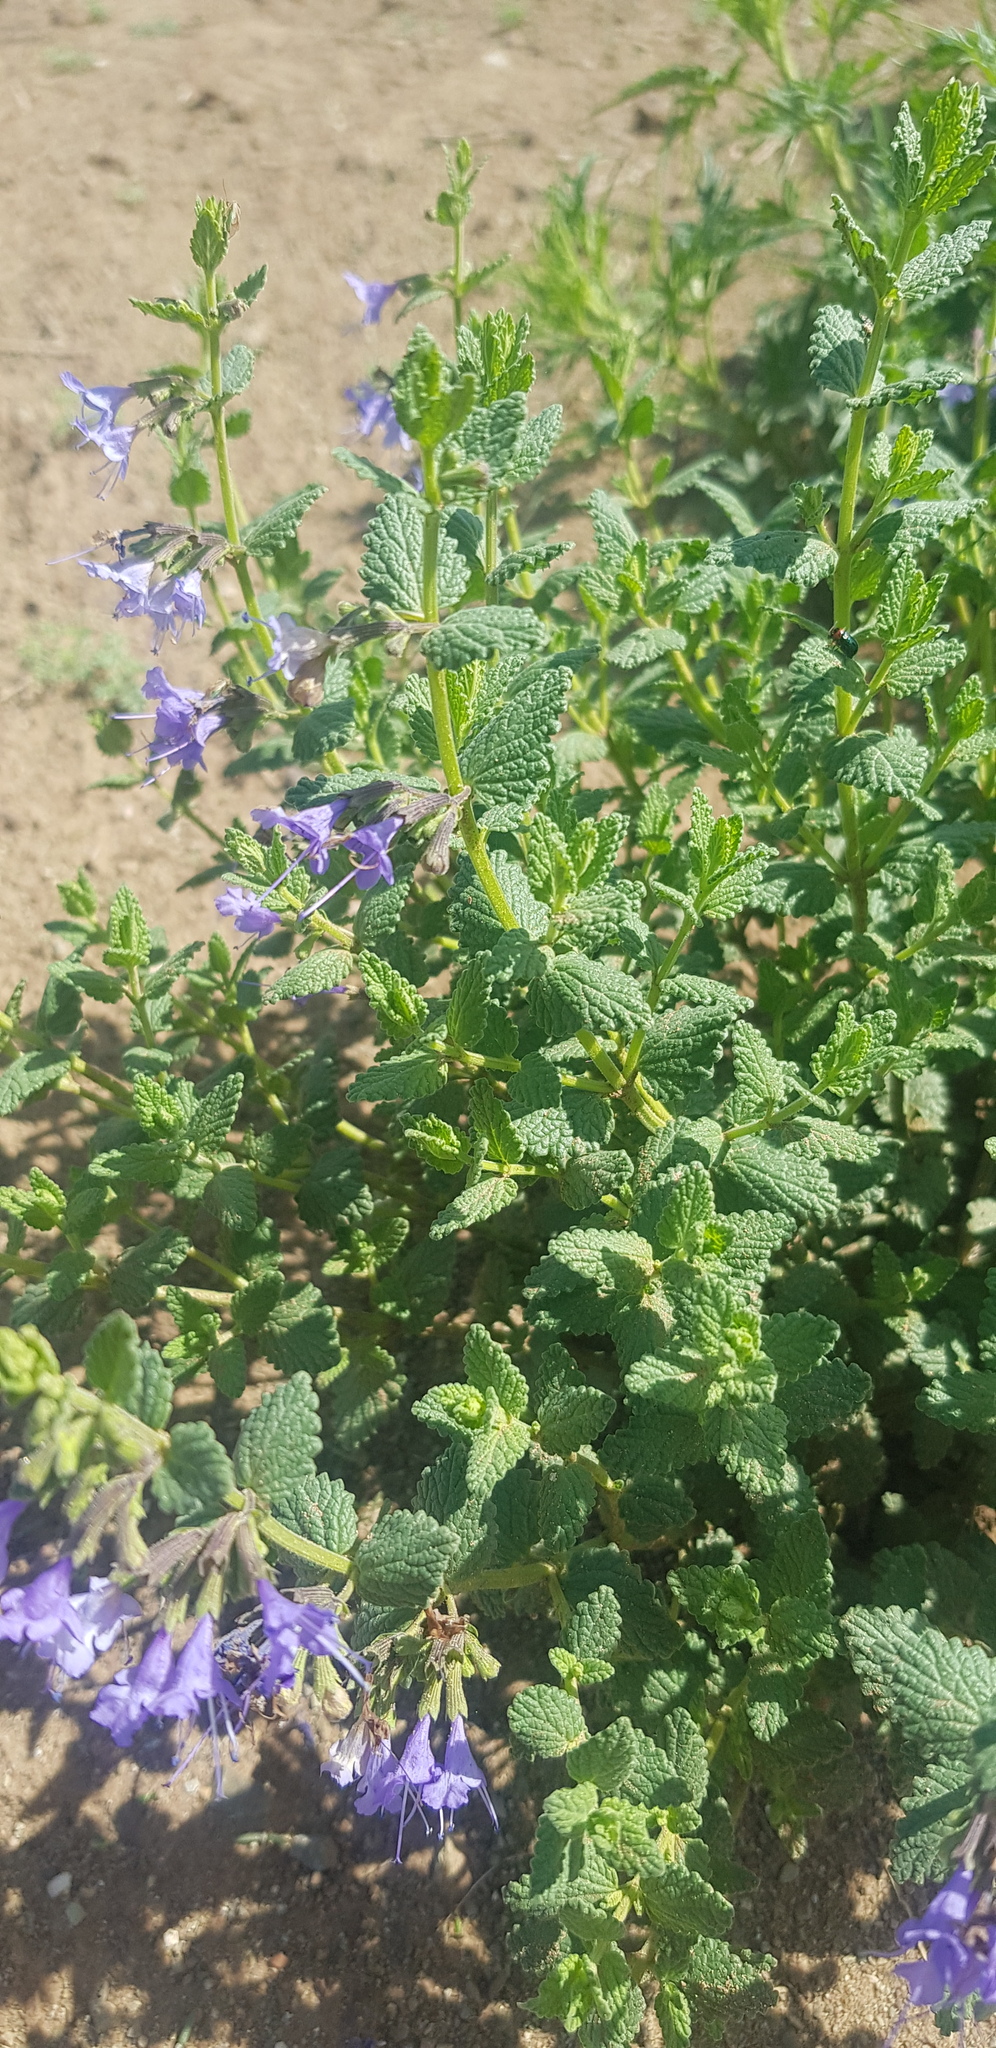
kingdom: Plantae
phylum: Tracheophyta
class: Magnoliopsida
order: Lamiales
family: Lamiaceae
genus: Nepeta
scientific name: Nepeta lophanthus
